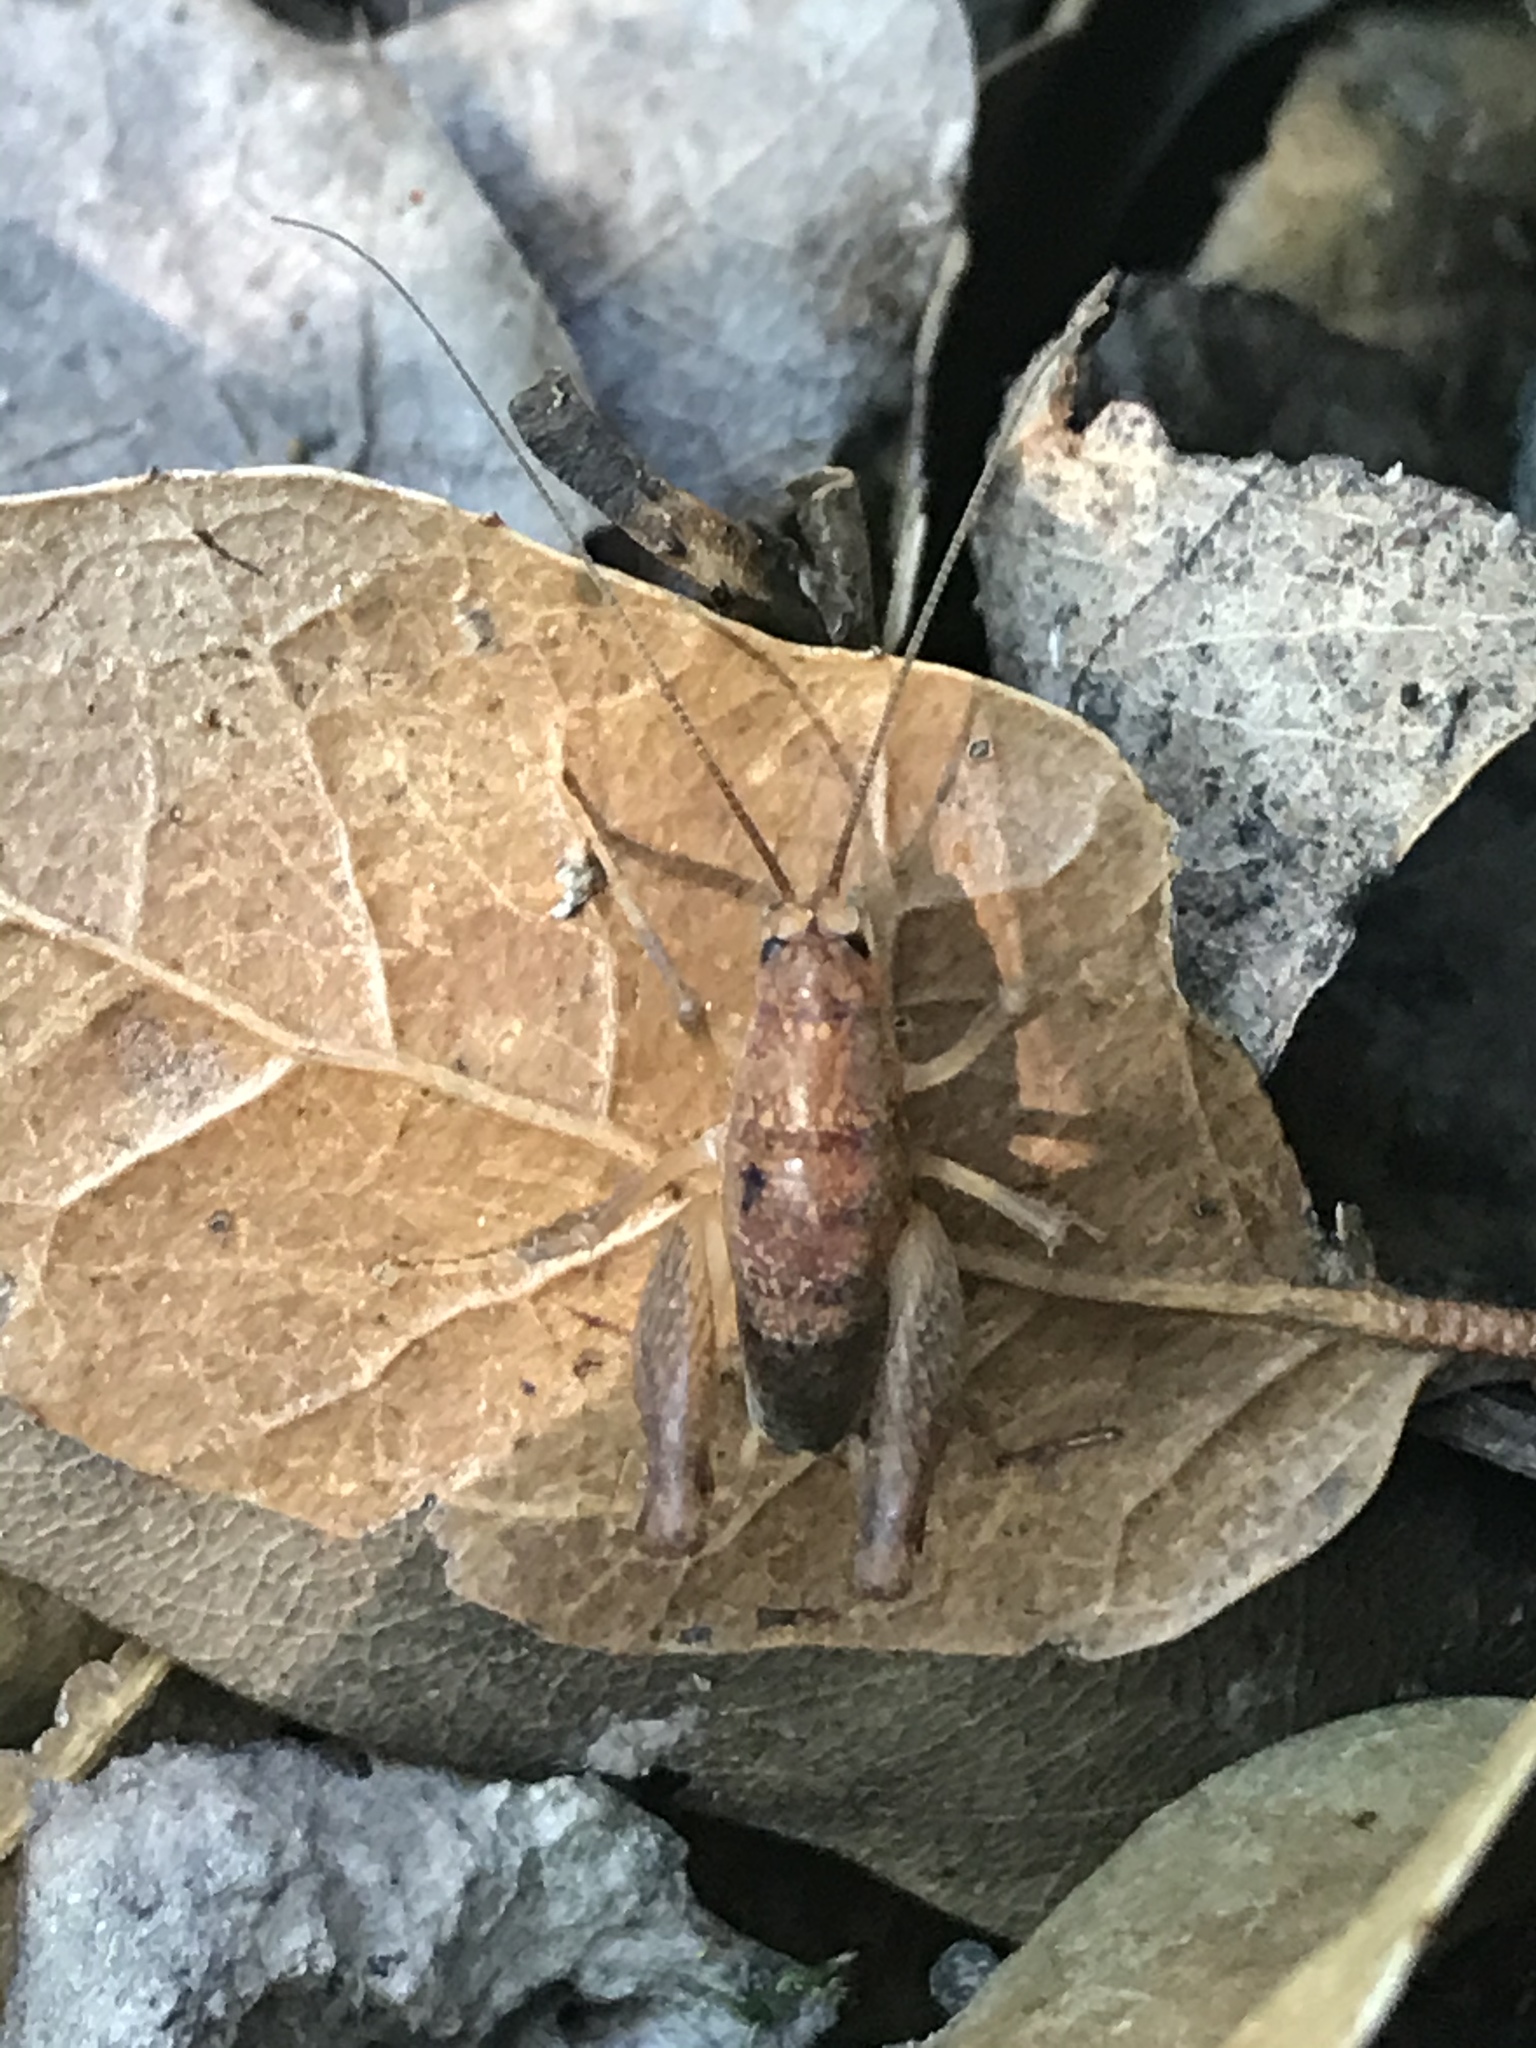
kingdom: Animalia
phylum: Arthropoda
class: Insecta
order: Orthoptera
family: Rhaphidophoridae
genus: Pristoceuthophilus
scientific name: Pristoceuthophilus pacificus
